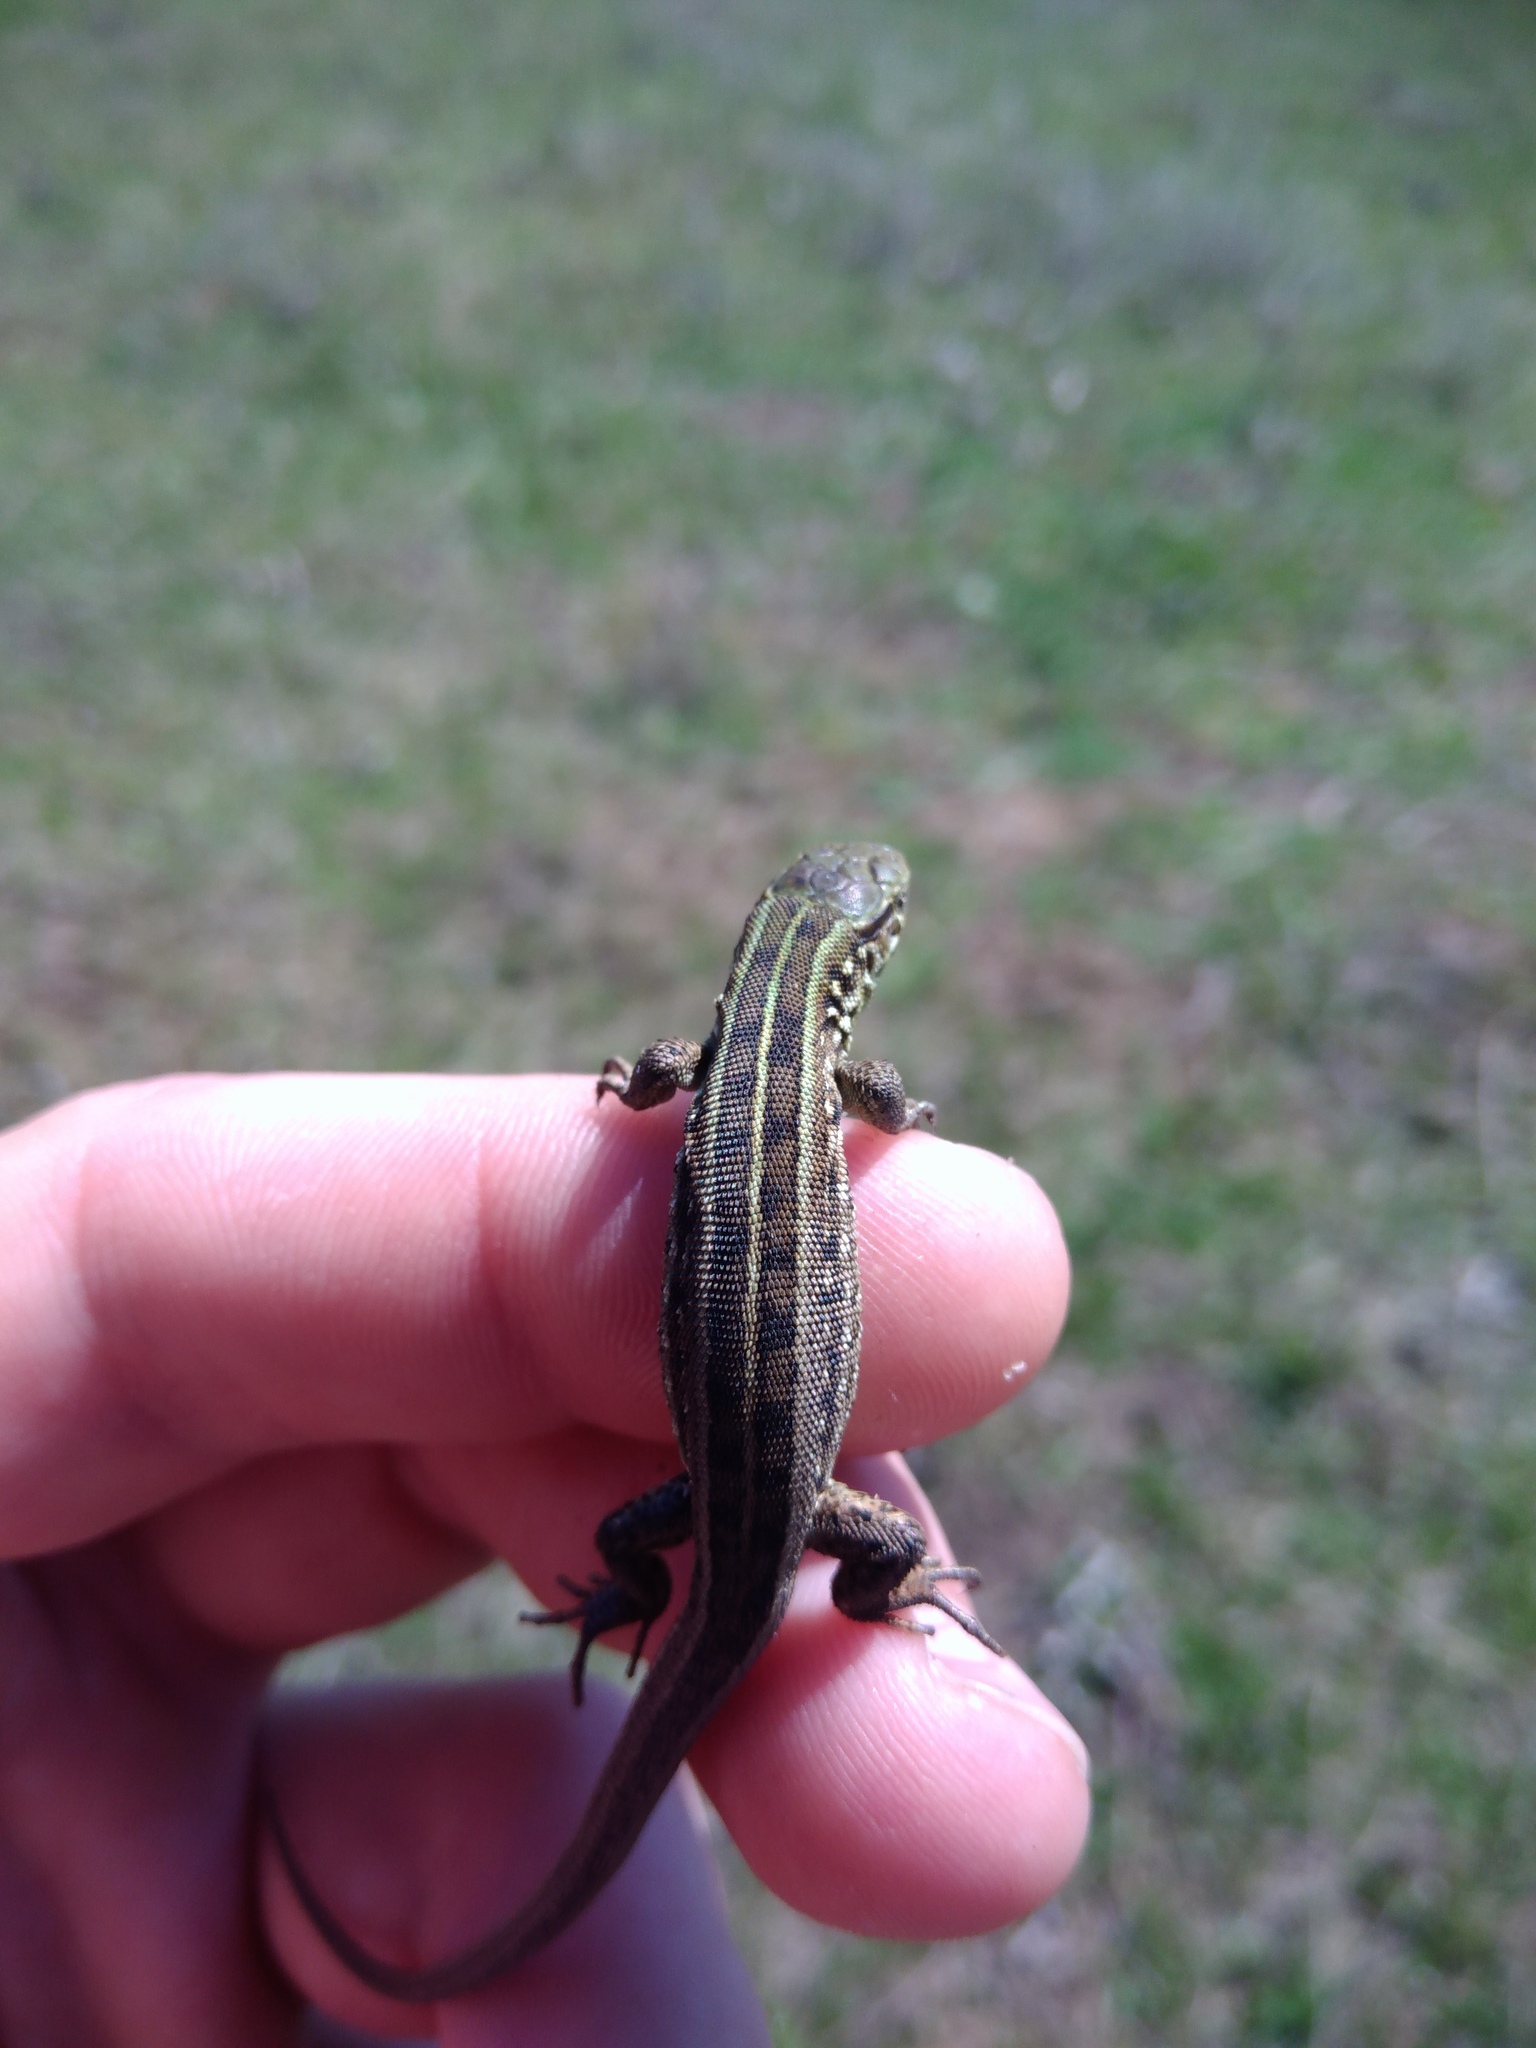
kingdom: Animalia
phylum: Chordata
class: Squamata
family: Lacertidae
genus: Lacerta
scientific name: Lacerta agilis
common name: Sand lizard
